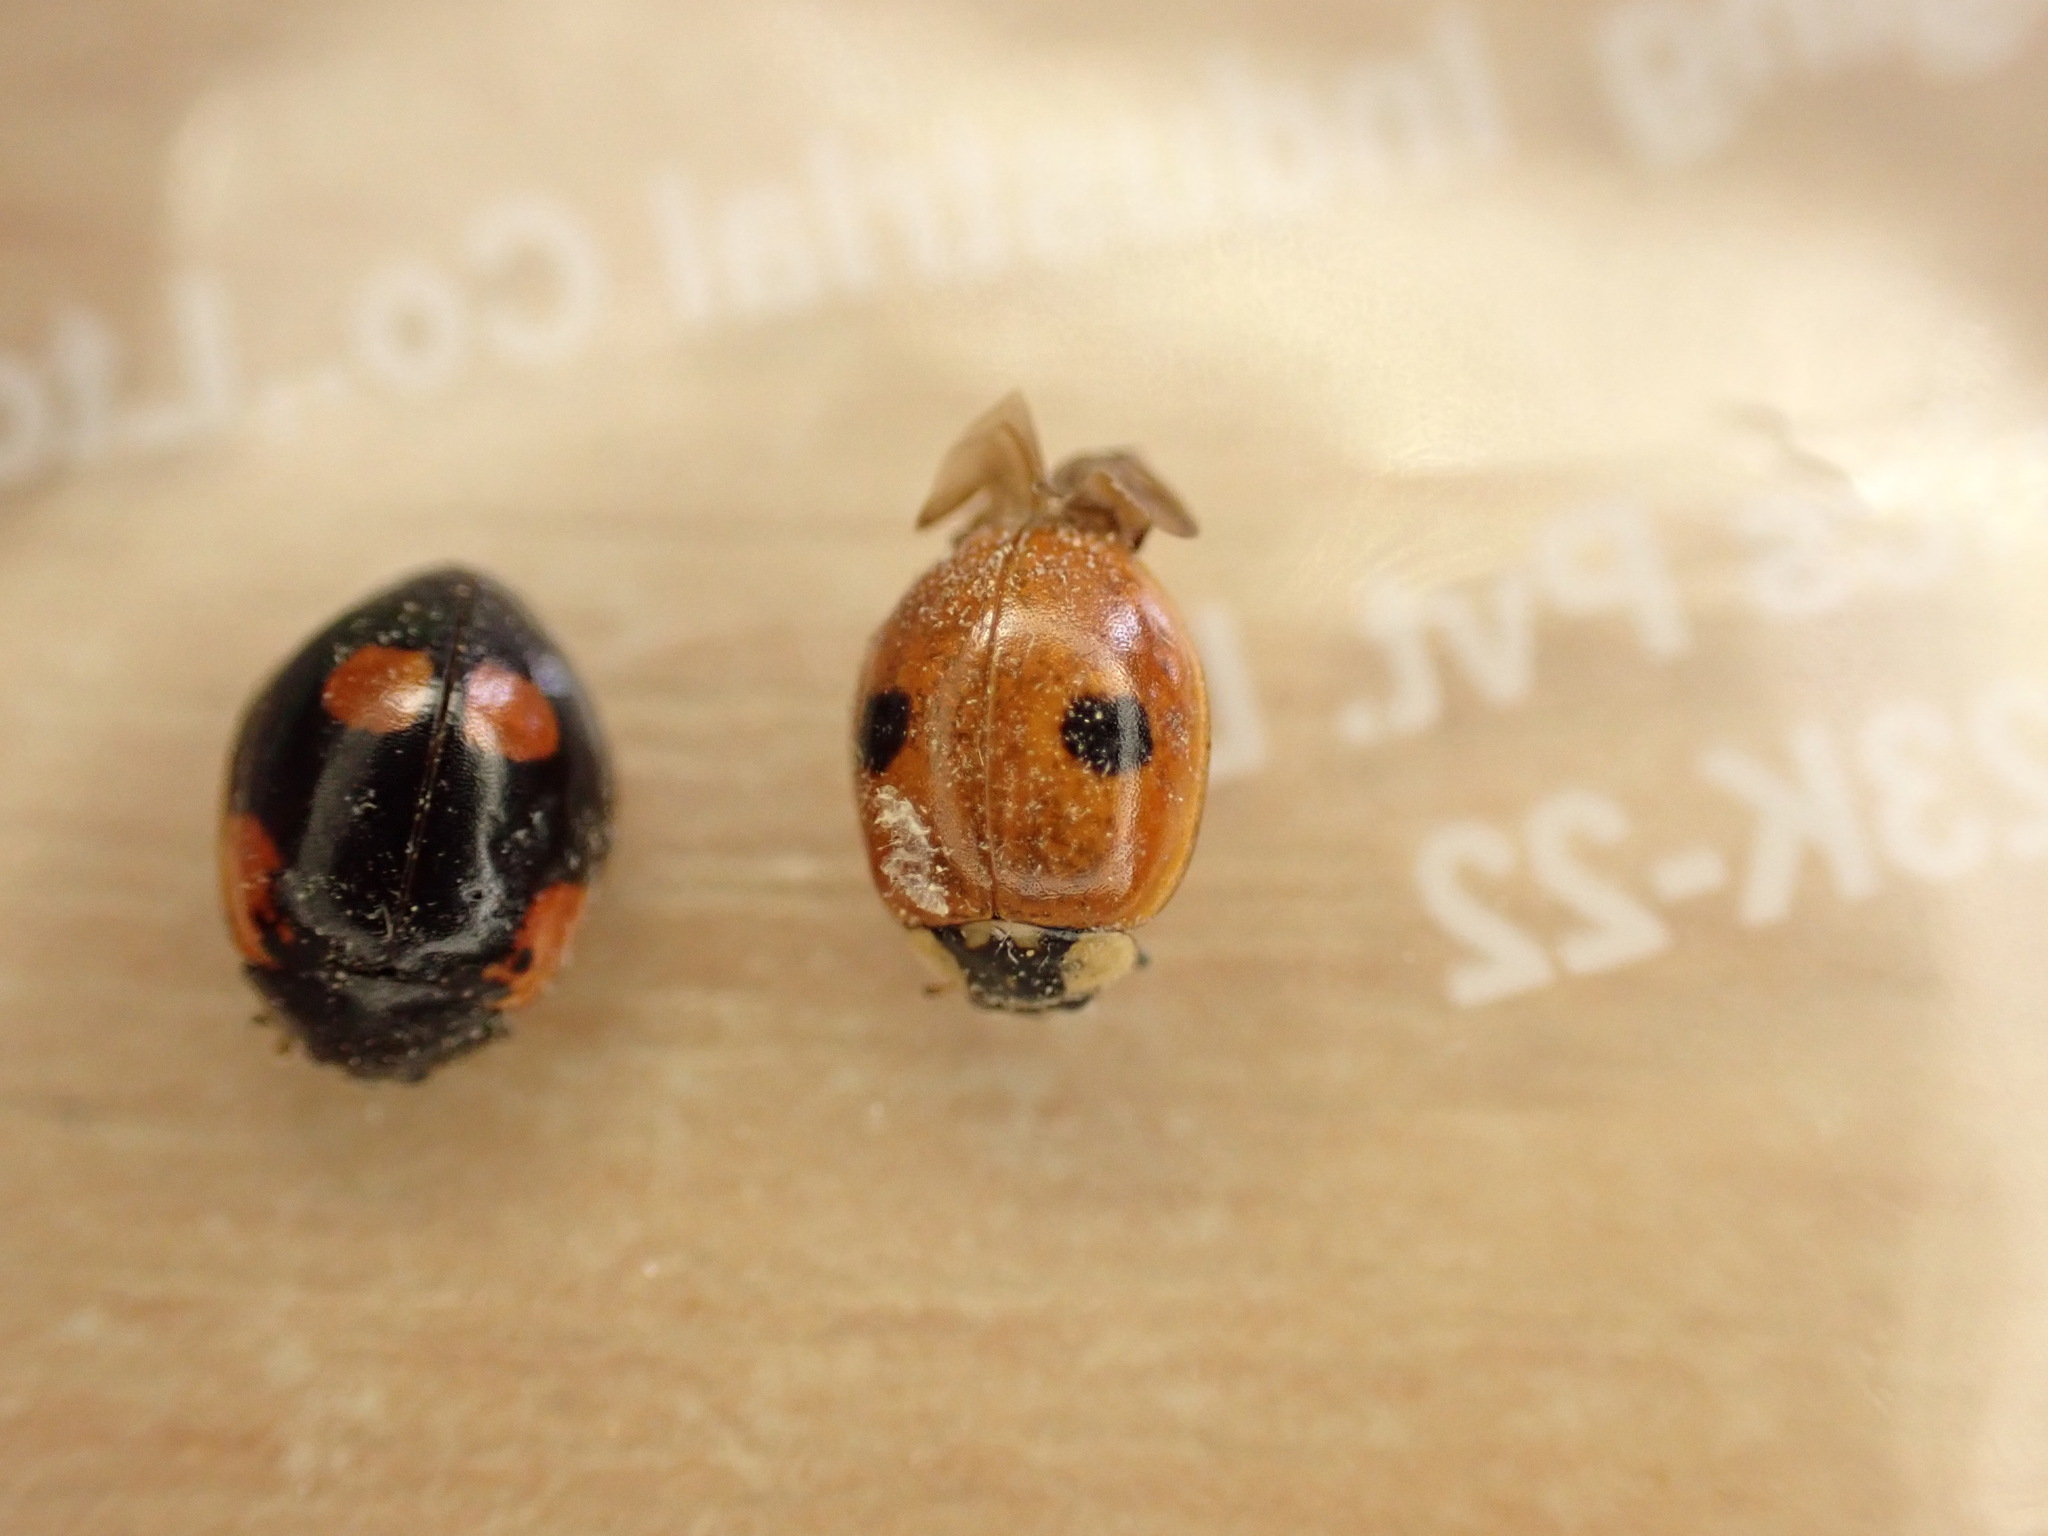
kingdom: Animalia
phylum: Arthropoda
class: Insecta
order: Coleoptera
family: Coccinellidae
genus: Adalia
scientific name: Adalia bipunctata
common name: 2-spot ladybird
